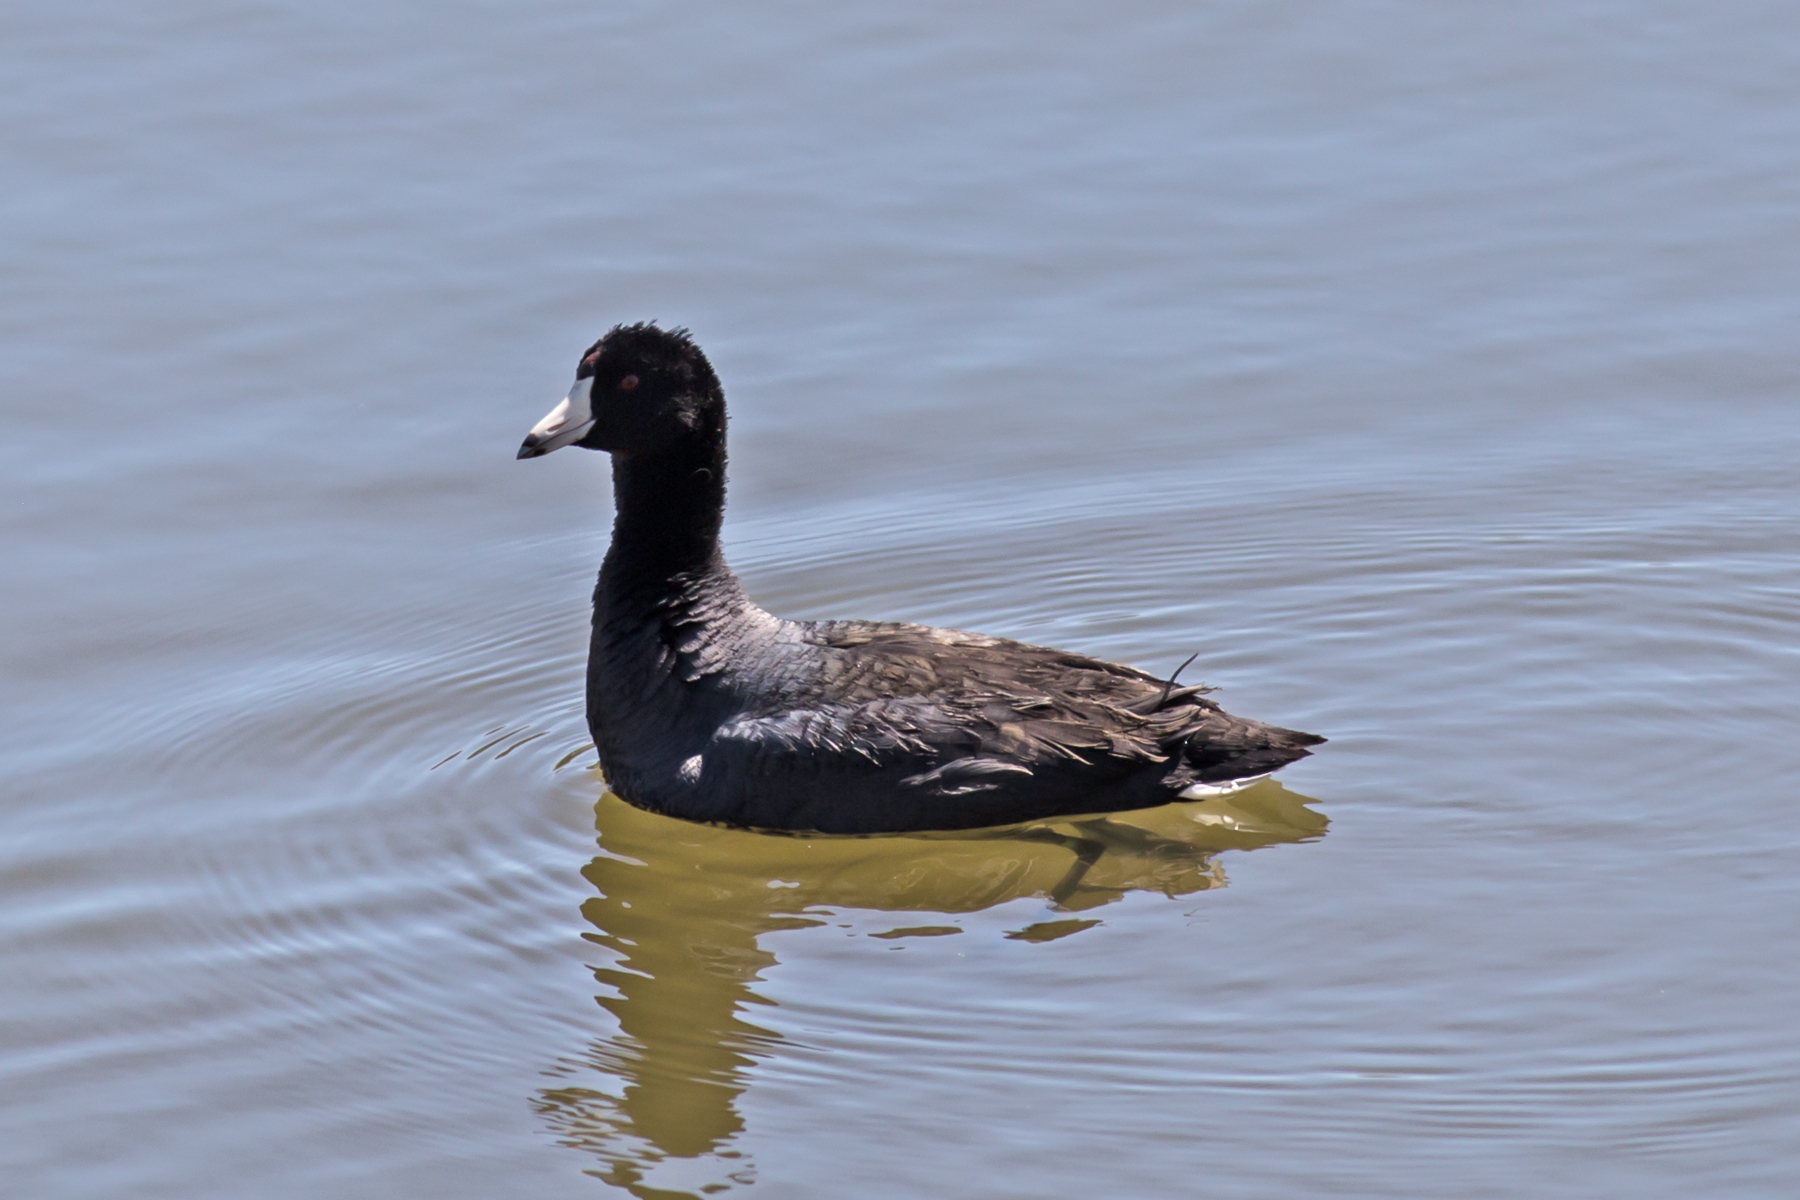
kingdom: Animalia
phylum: Chordata
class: Aves
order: Gruiformes
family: Rallidae
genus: Fulica
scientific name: Fulica americana
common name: American coot
